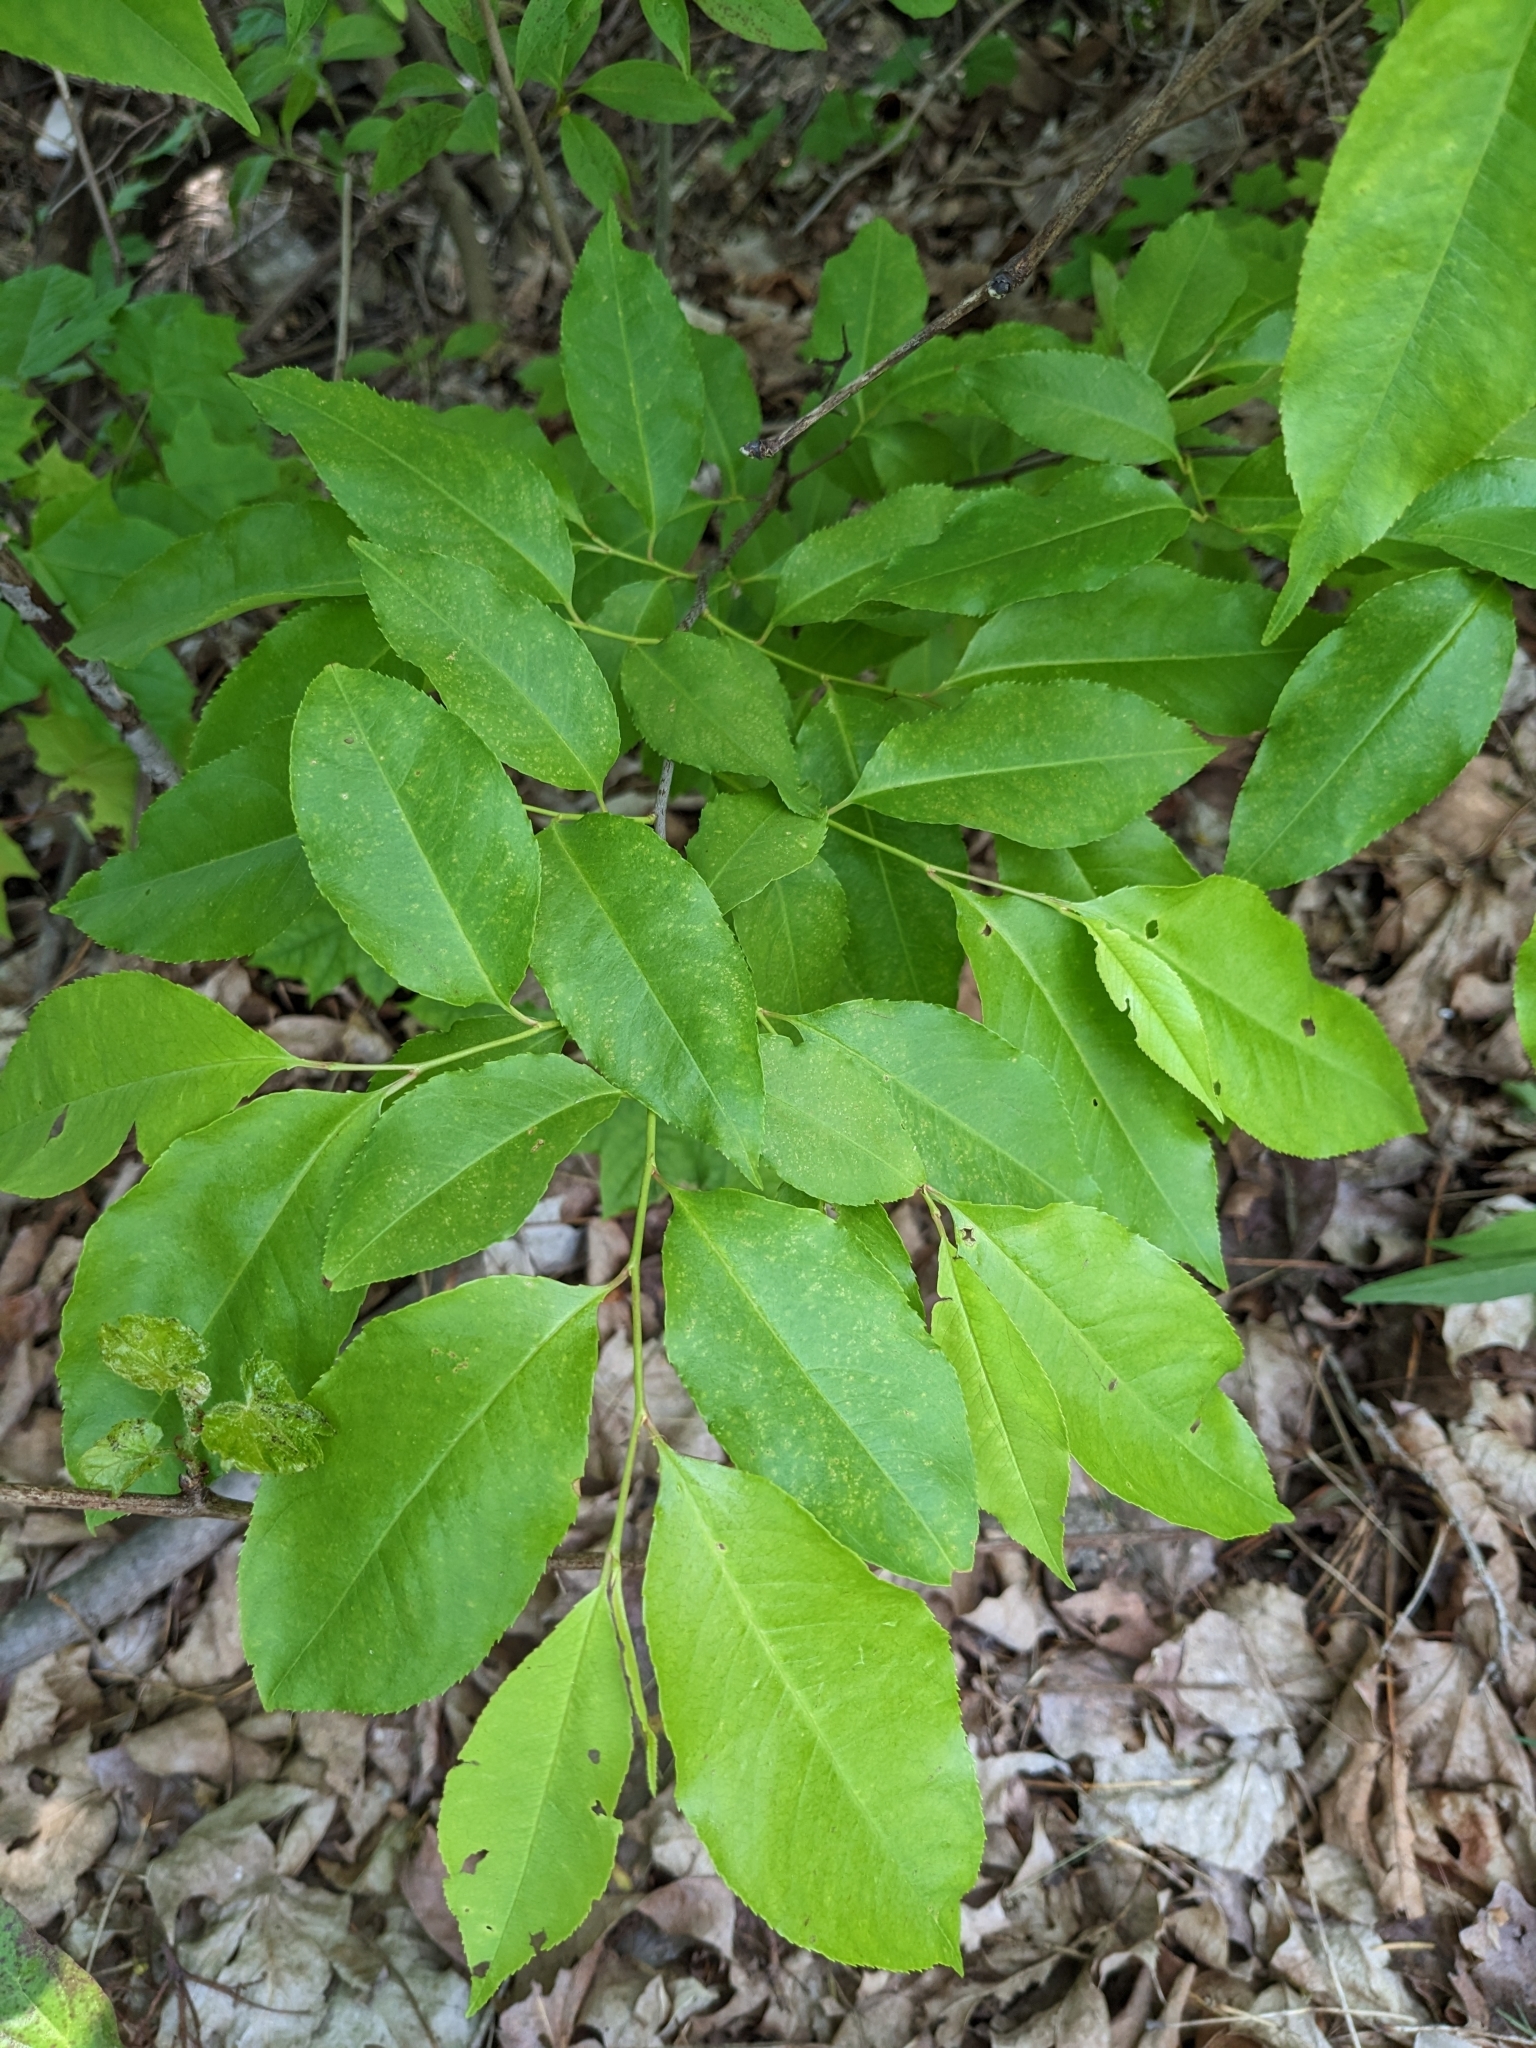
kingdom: Plantae
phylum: Tracheophyta
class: Magnoliopsida
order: Rosales
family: Rosaceae
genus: Prunus
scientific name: Prunus serotina
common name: Black cherry
